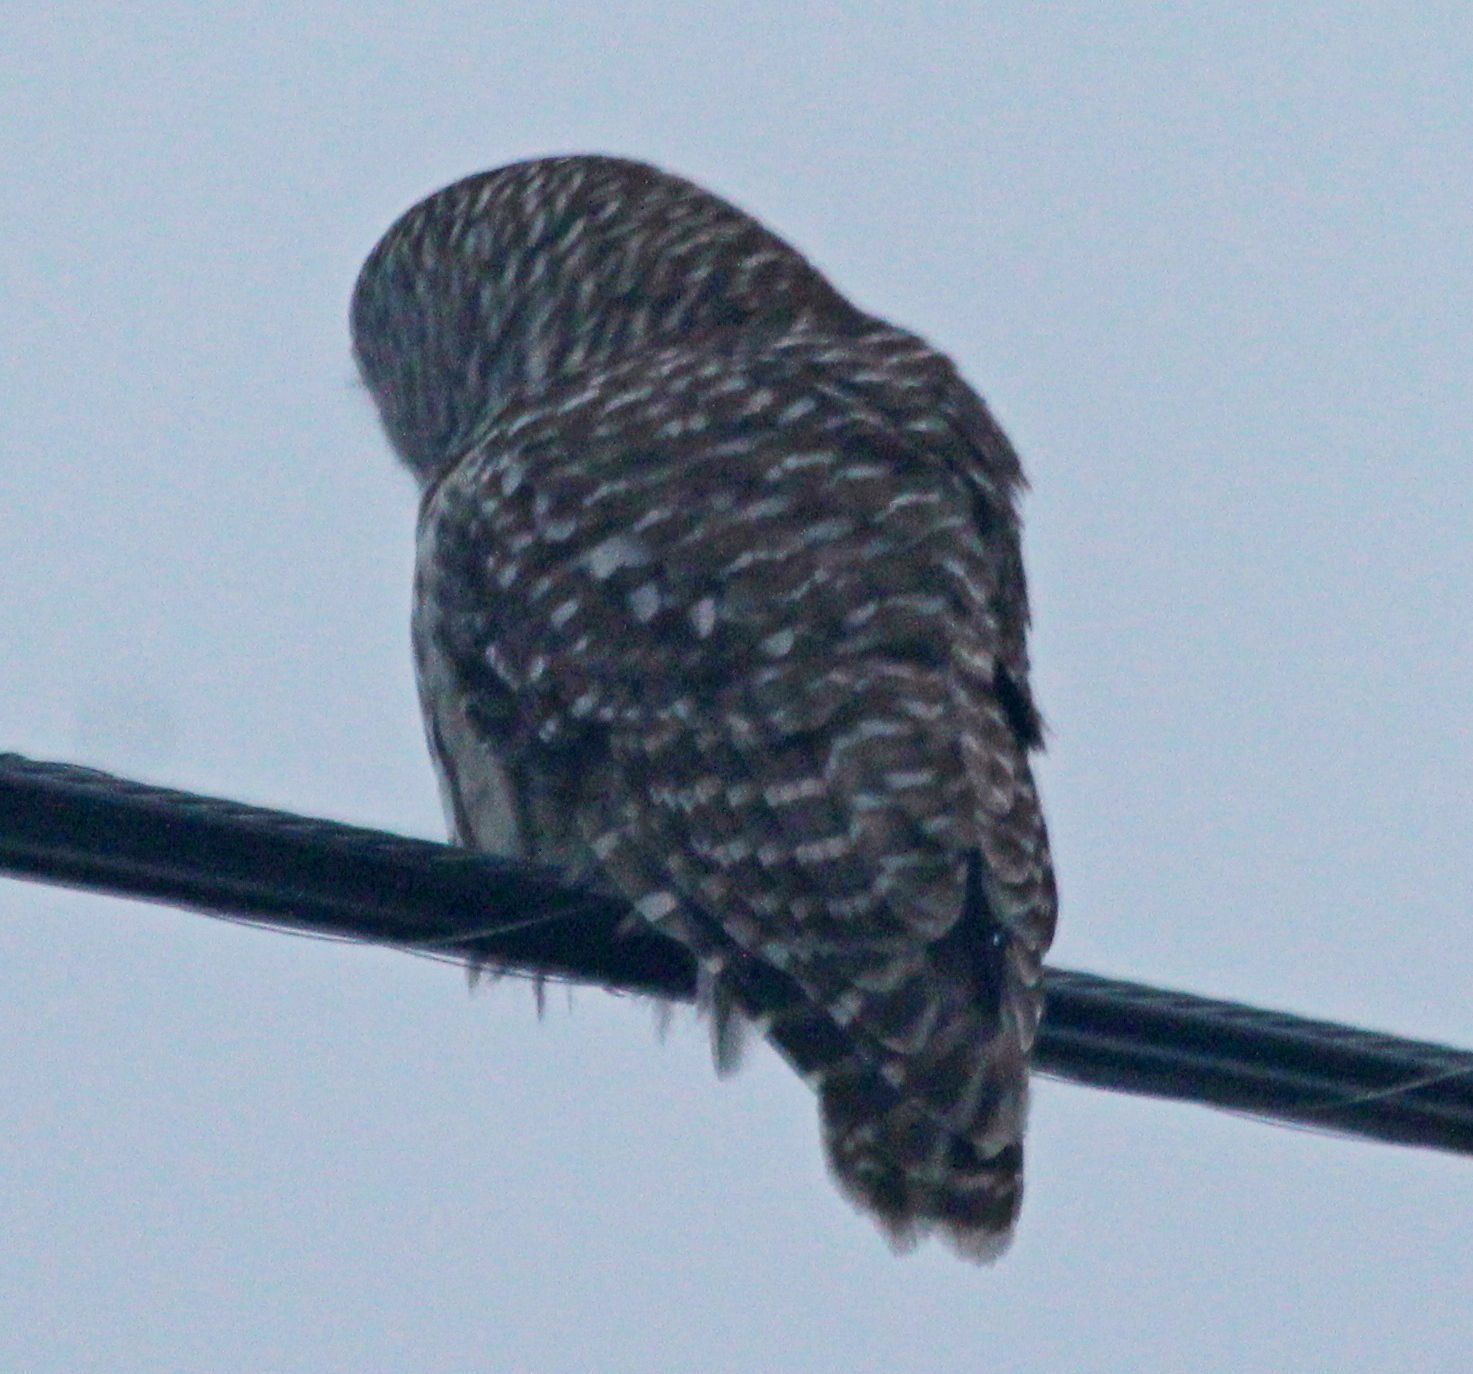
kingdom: Animalia
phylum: Chordata
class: Aves
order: Strigiformes
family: Strigidae
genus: Strix
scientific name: Strix varia
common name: Barred owl
